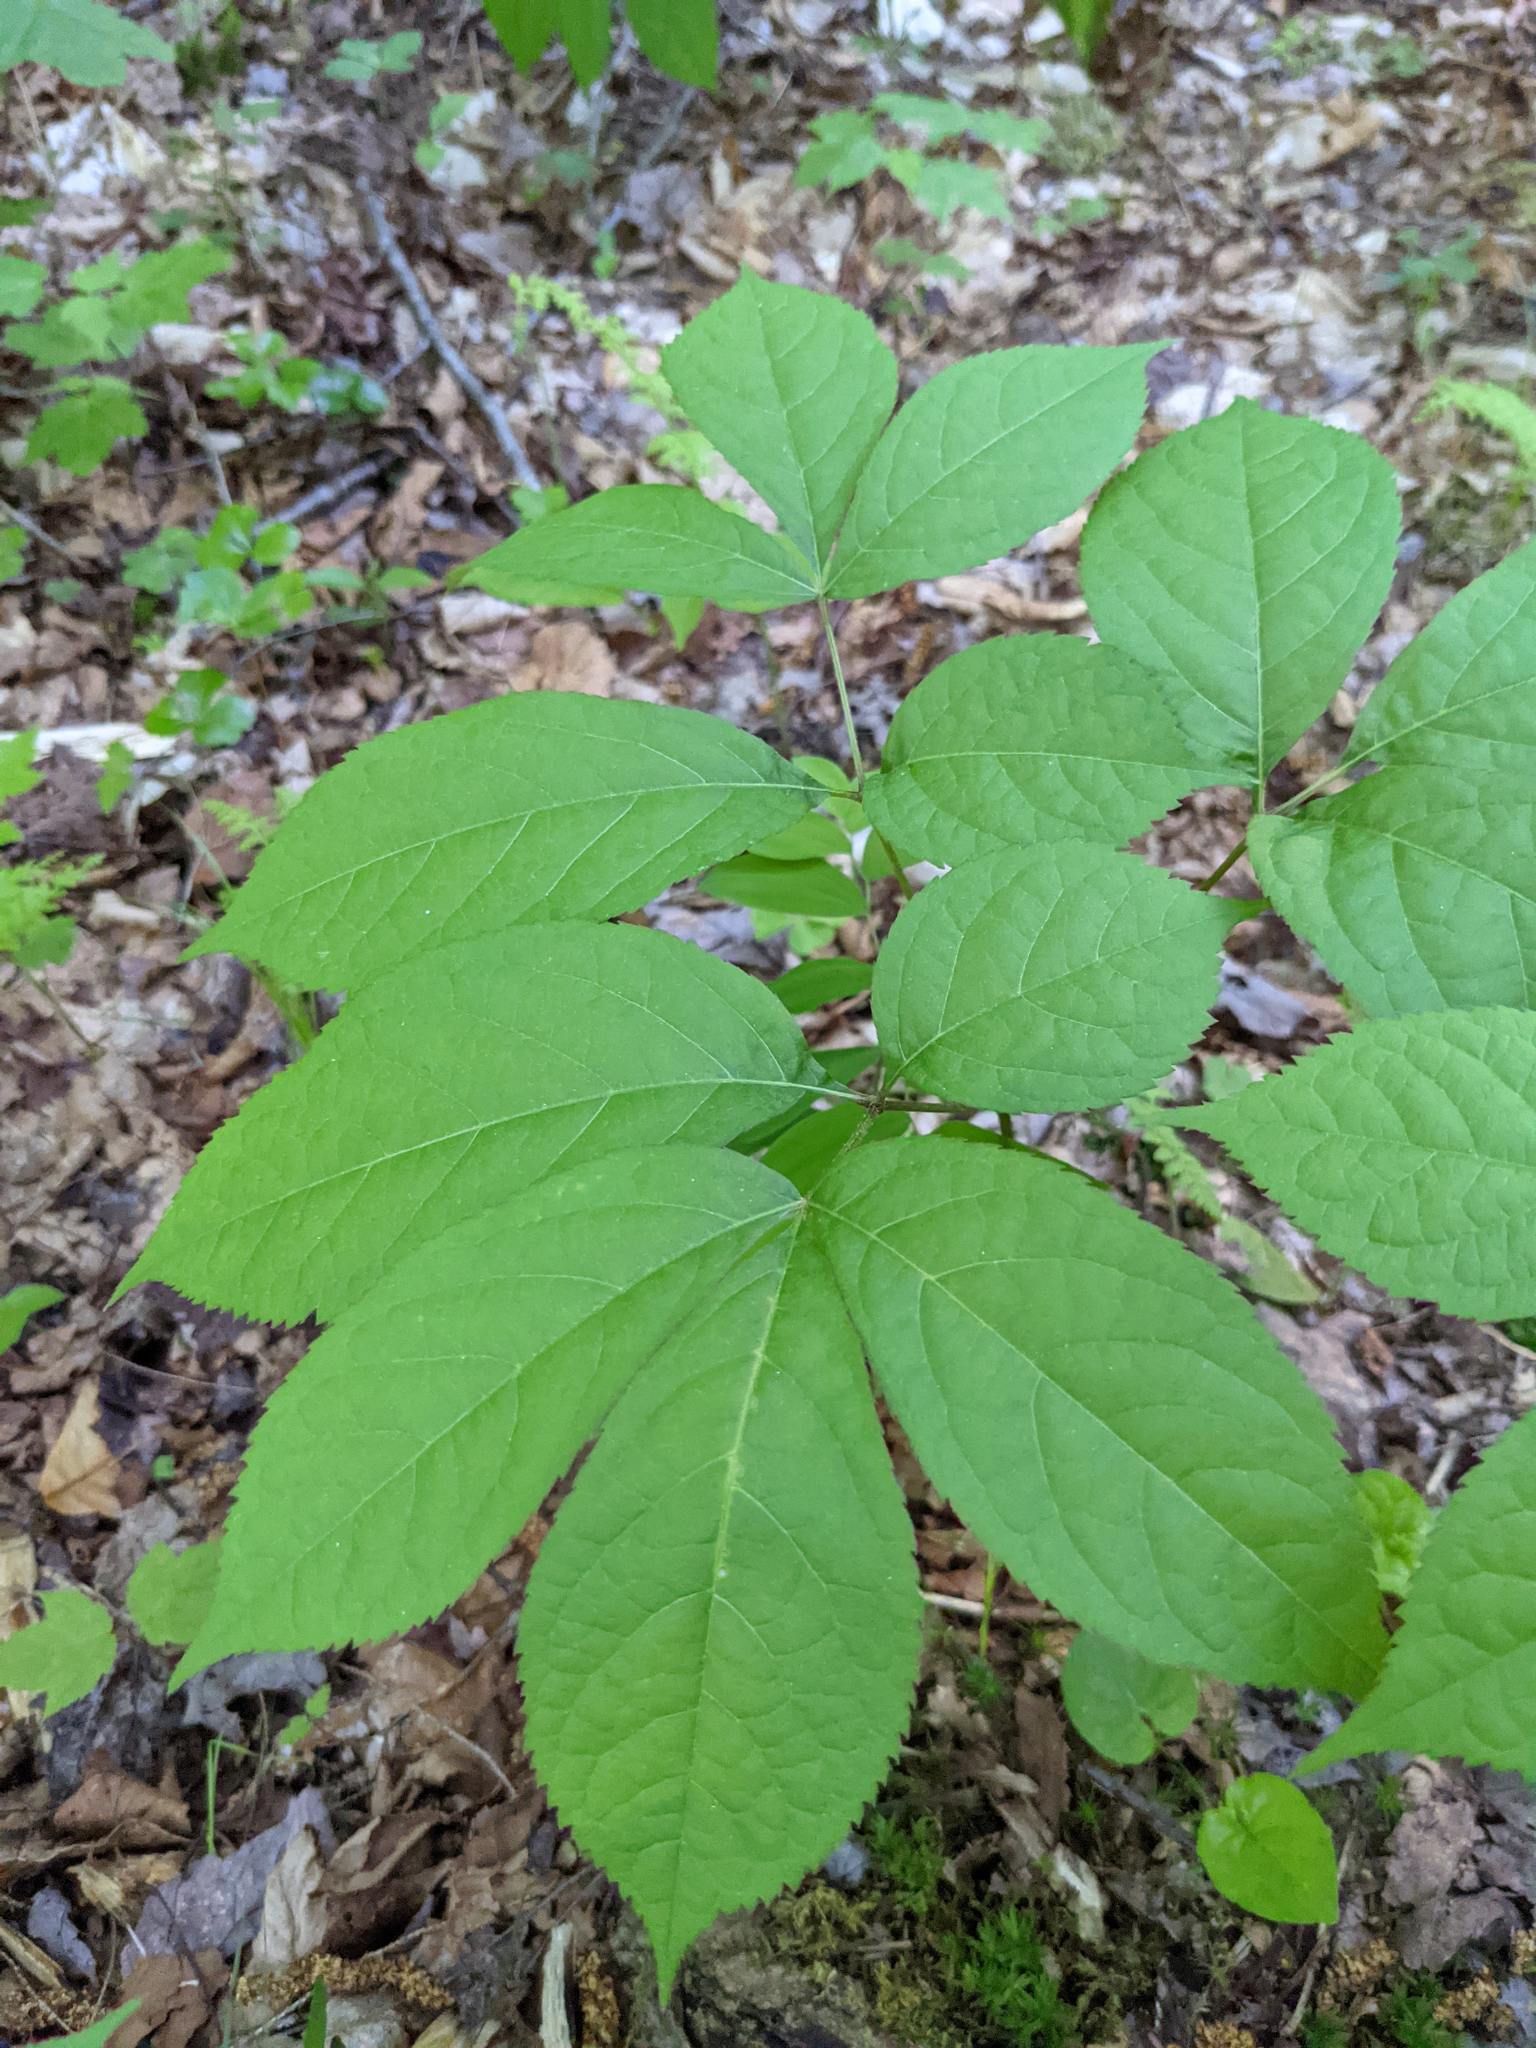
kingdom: Plantae
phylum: Tracheophyta
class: Magnoliopsida
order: Apiales
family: Araliaceae
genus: Aralia
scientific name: Aralia nudicaulis
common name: Wild sarsaparilla
